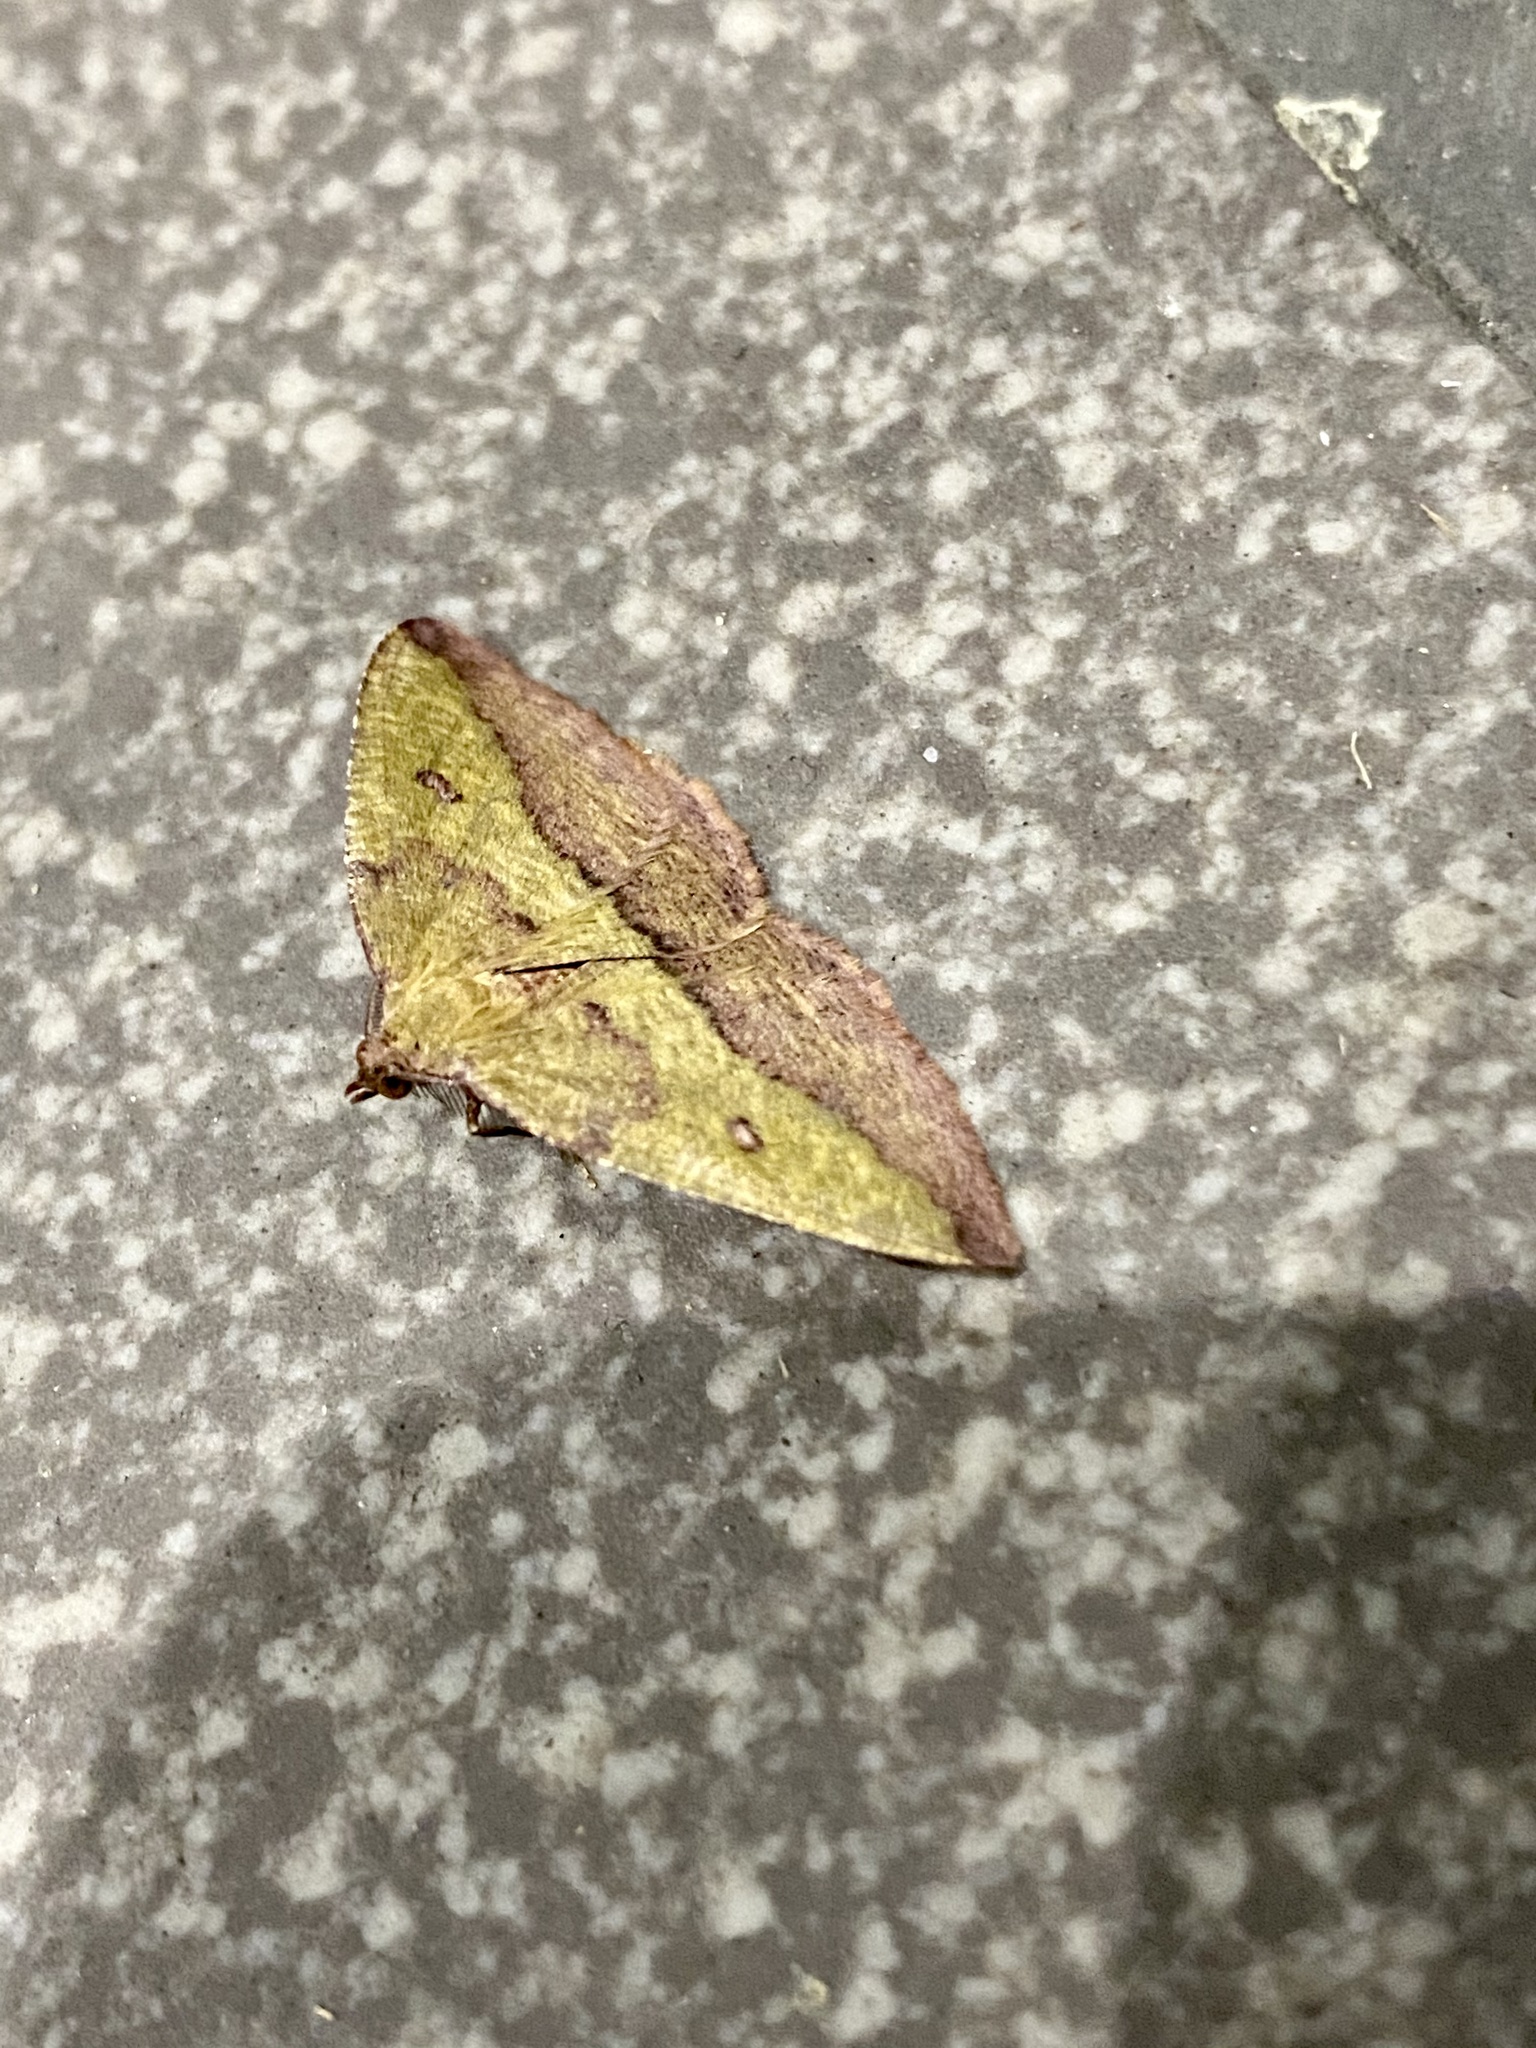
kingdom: Animalia
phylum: Arthropoda
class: Insecta
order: Lepidoptera
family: Geometridae
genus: Heterolocha
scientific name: Heterolocha aristonaria
